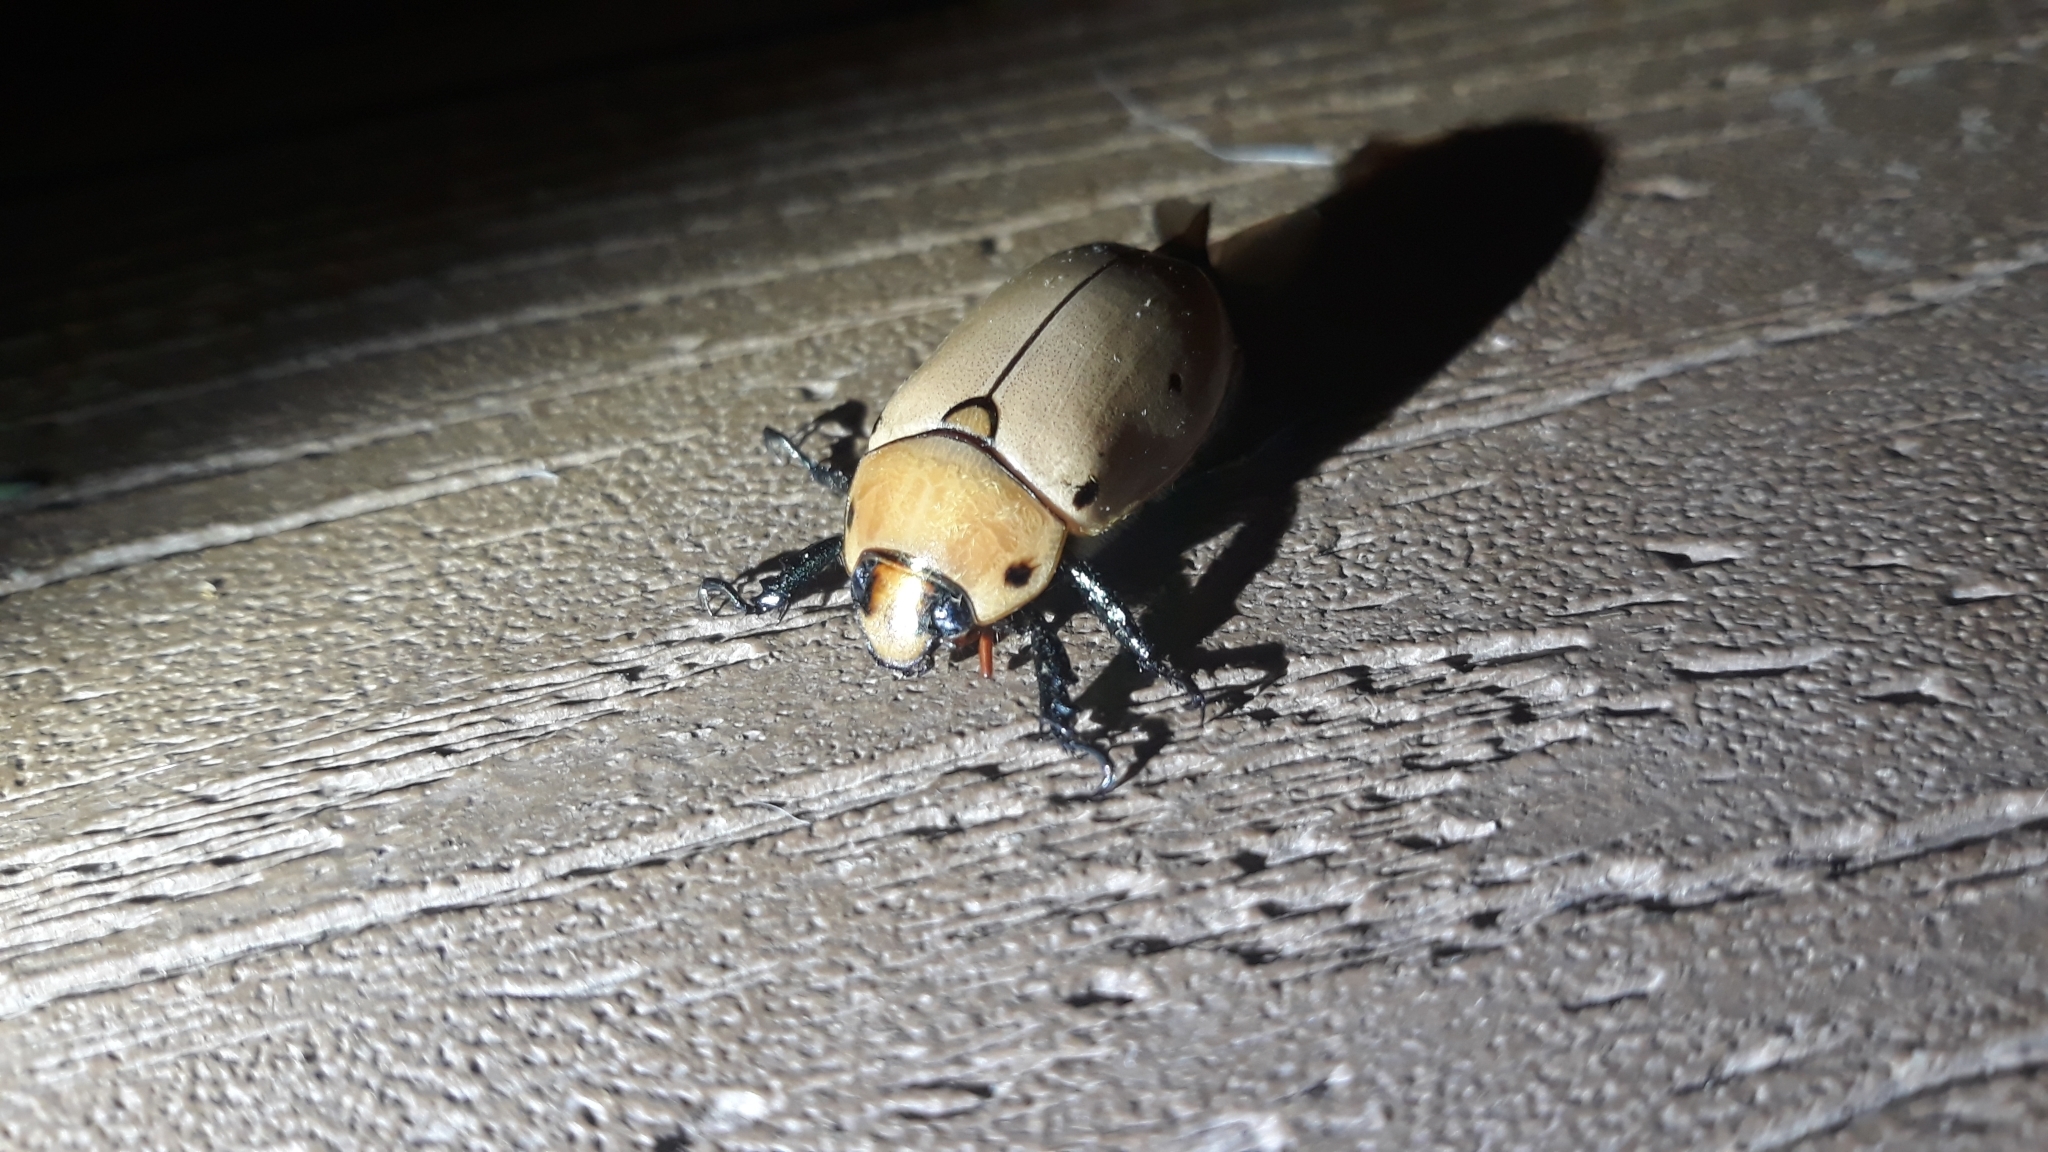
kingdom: Animalia
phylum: Arthropoda
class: Insecta
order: Coleoptera
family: Scarabaeidae
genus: Pelidnota
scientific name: Pelidnota punctata
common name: Grapevine beetle
